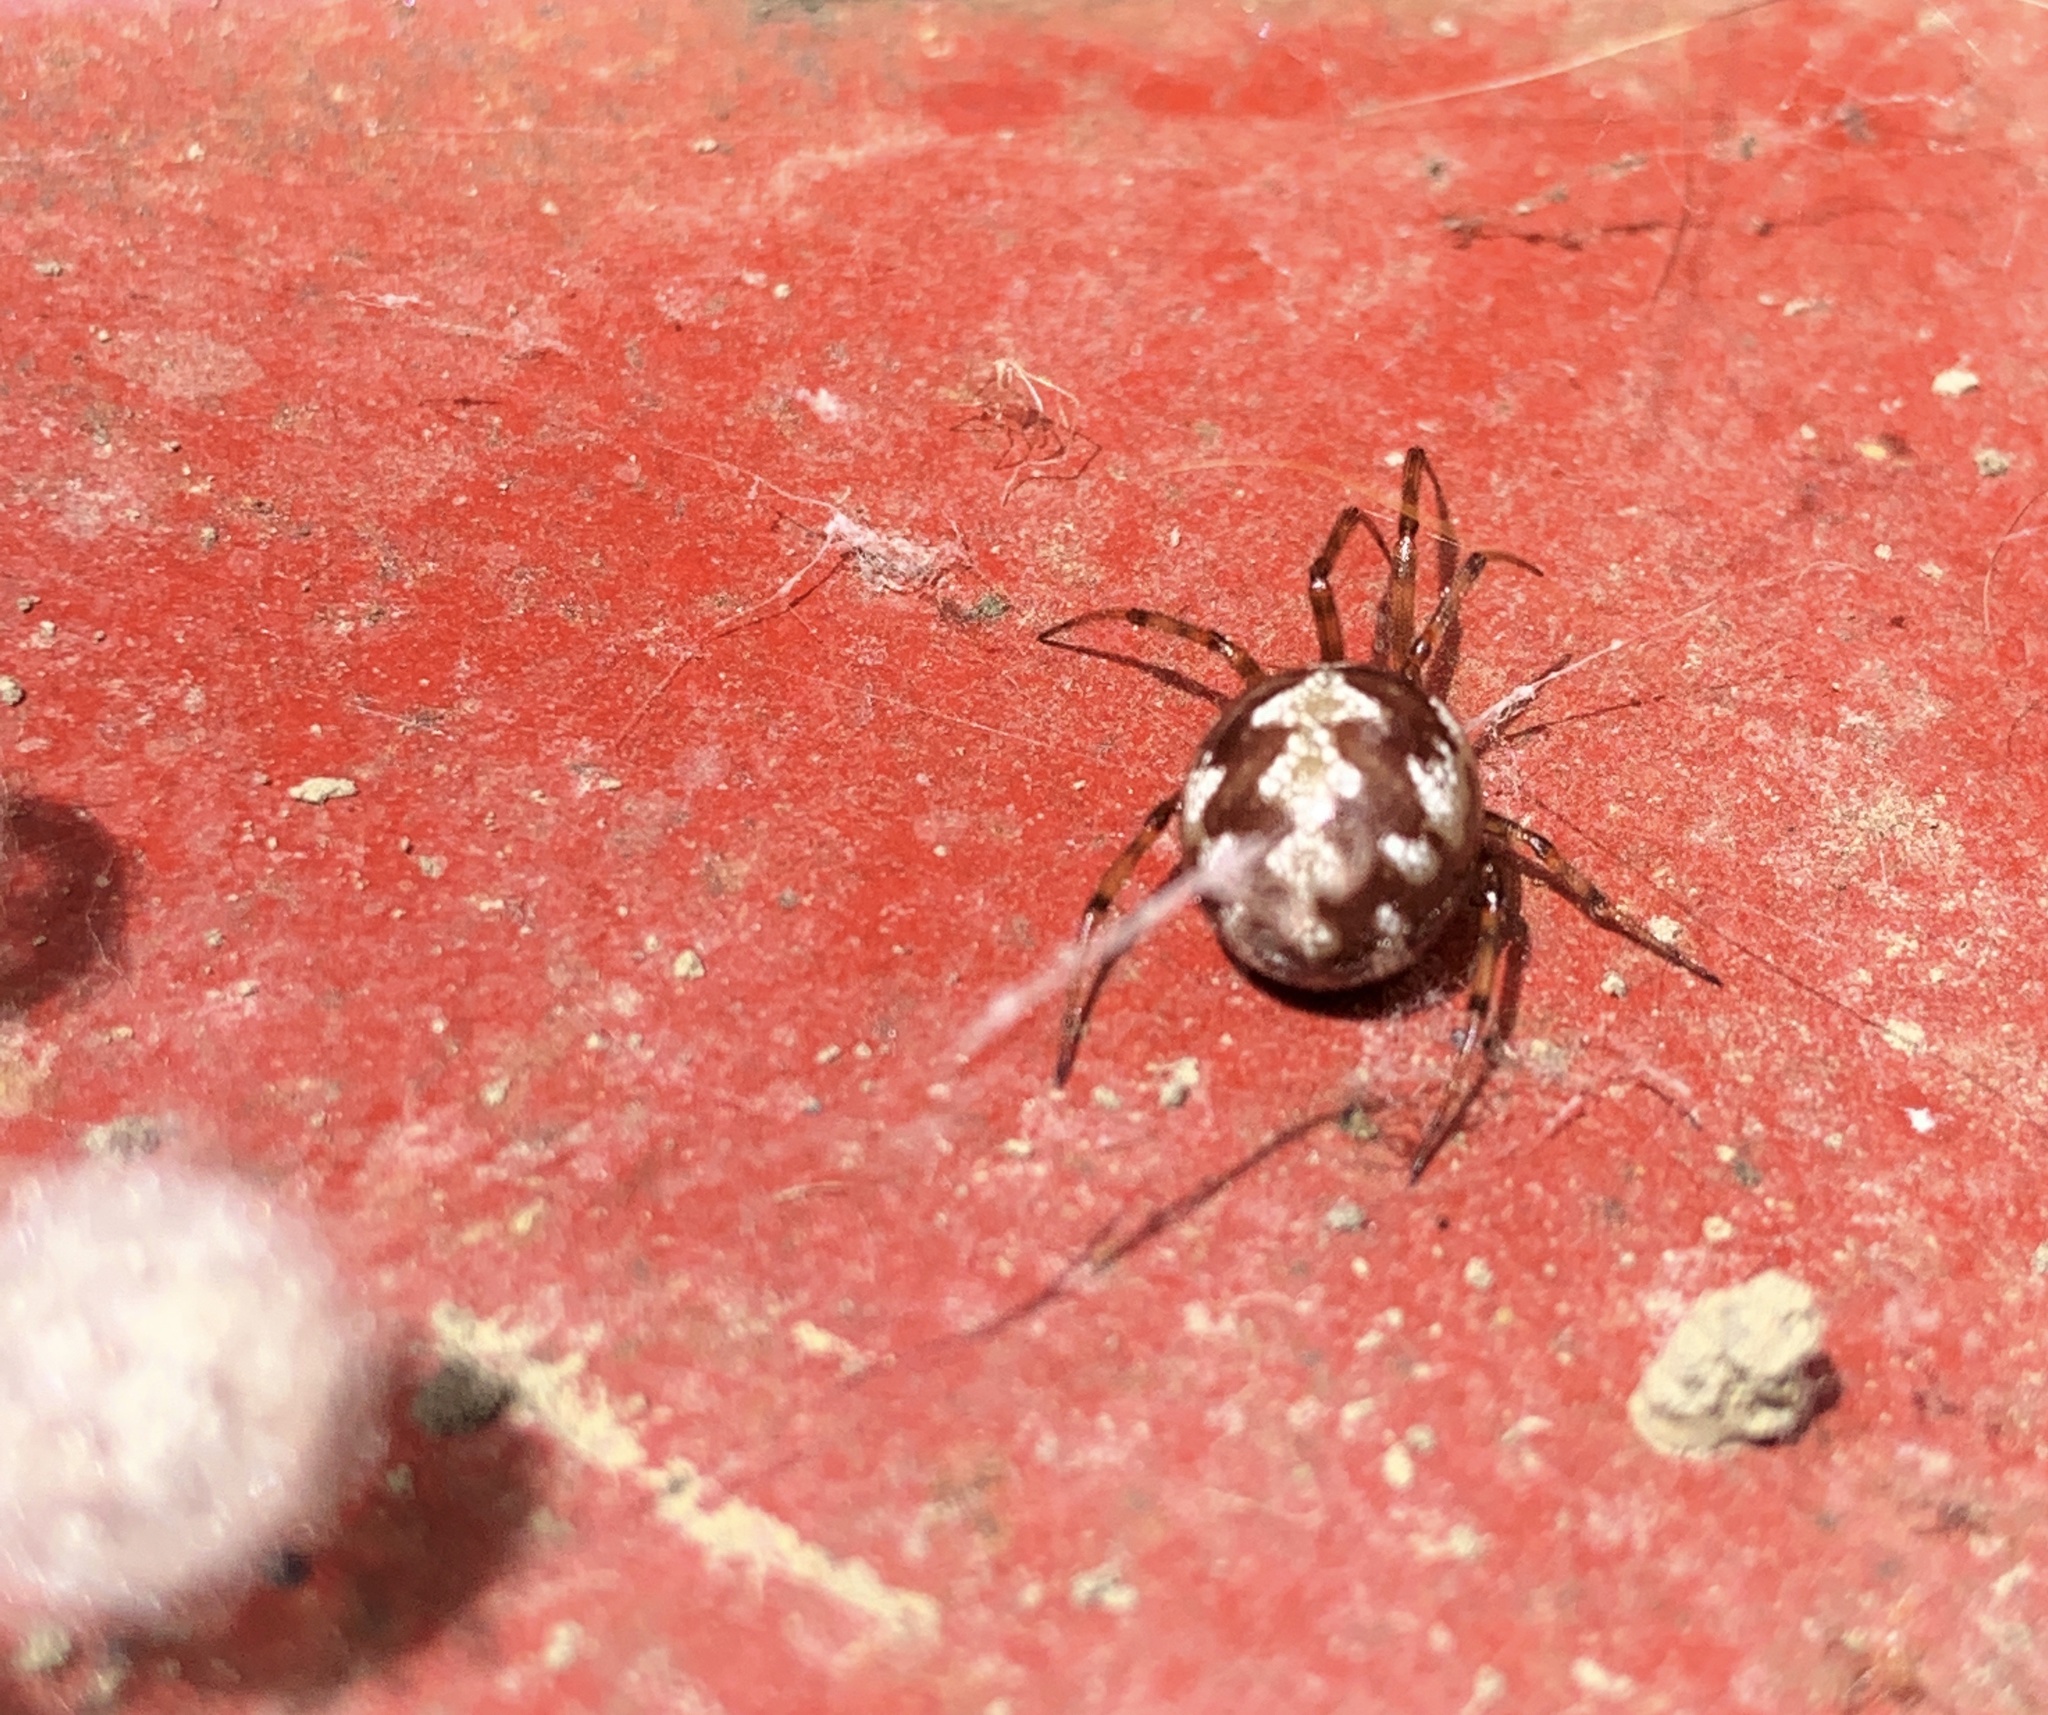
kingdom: Animalia
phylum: Arthropoda
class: Arachnida
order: Araneae
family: Theridiidae
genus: Steatoda
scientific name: Steatoda triangulosa
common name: Triangulate bud spider
